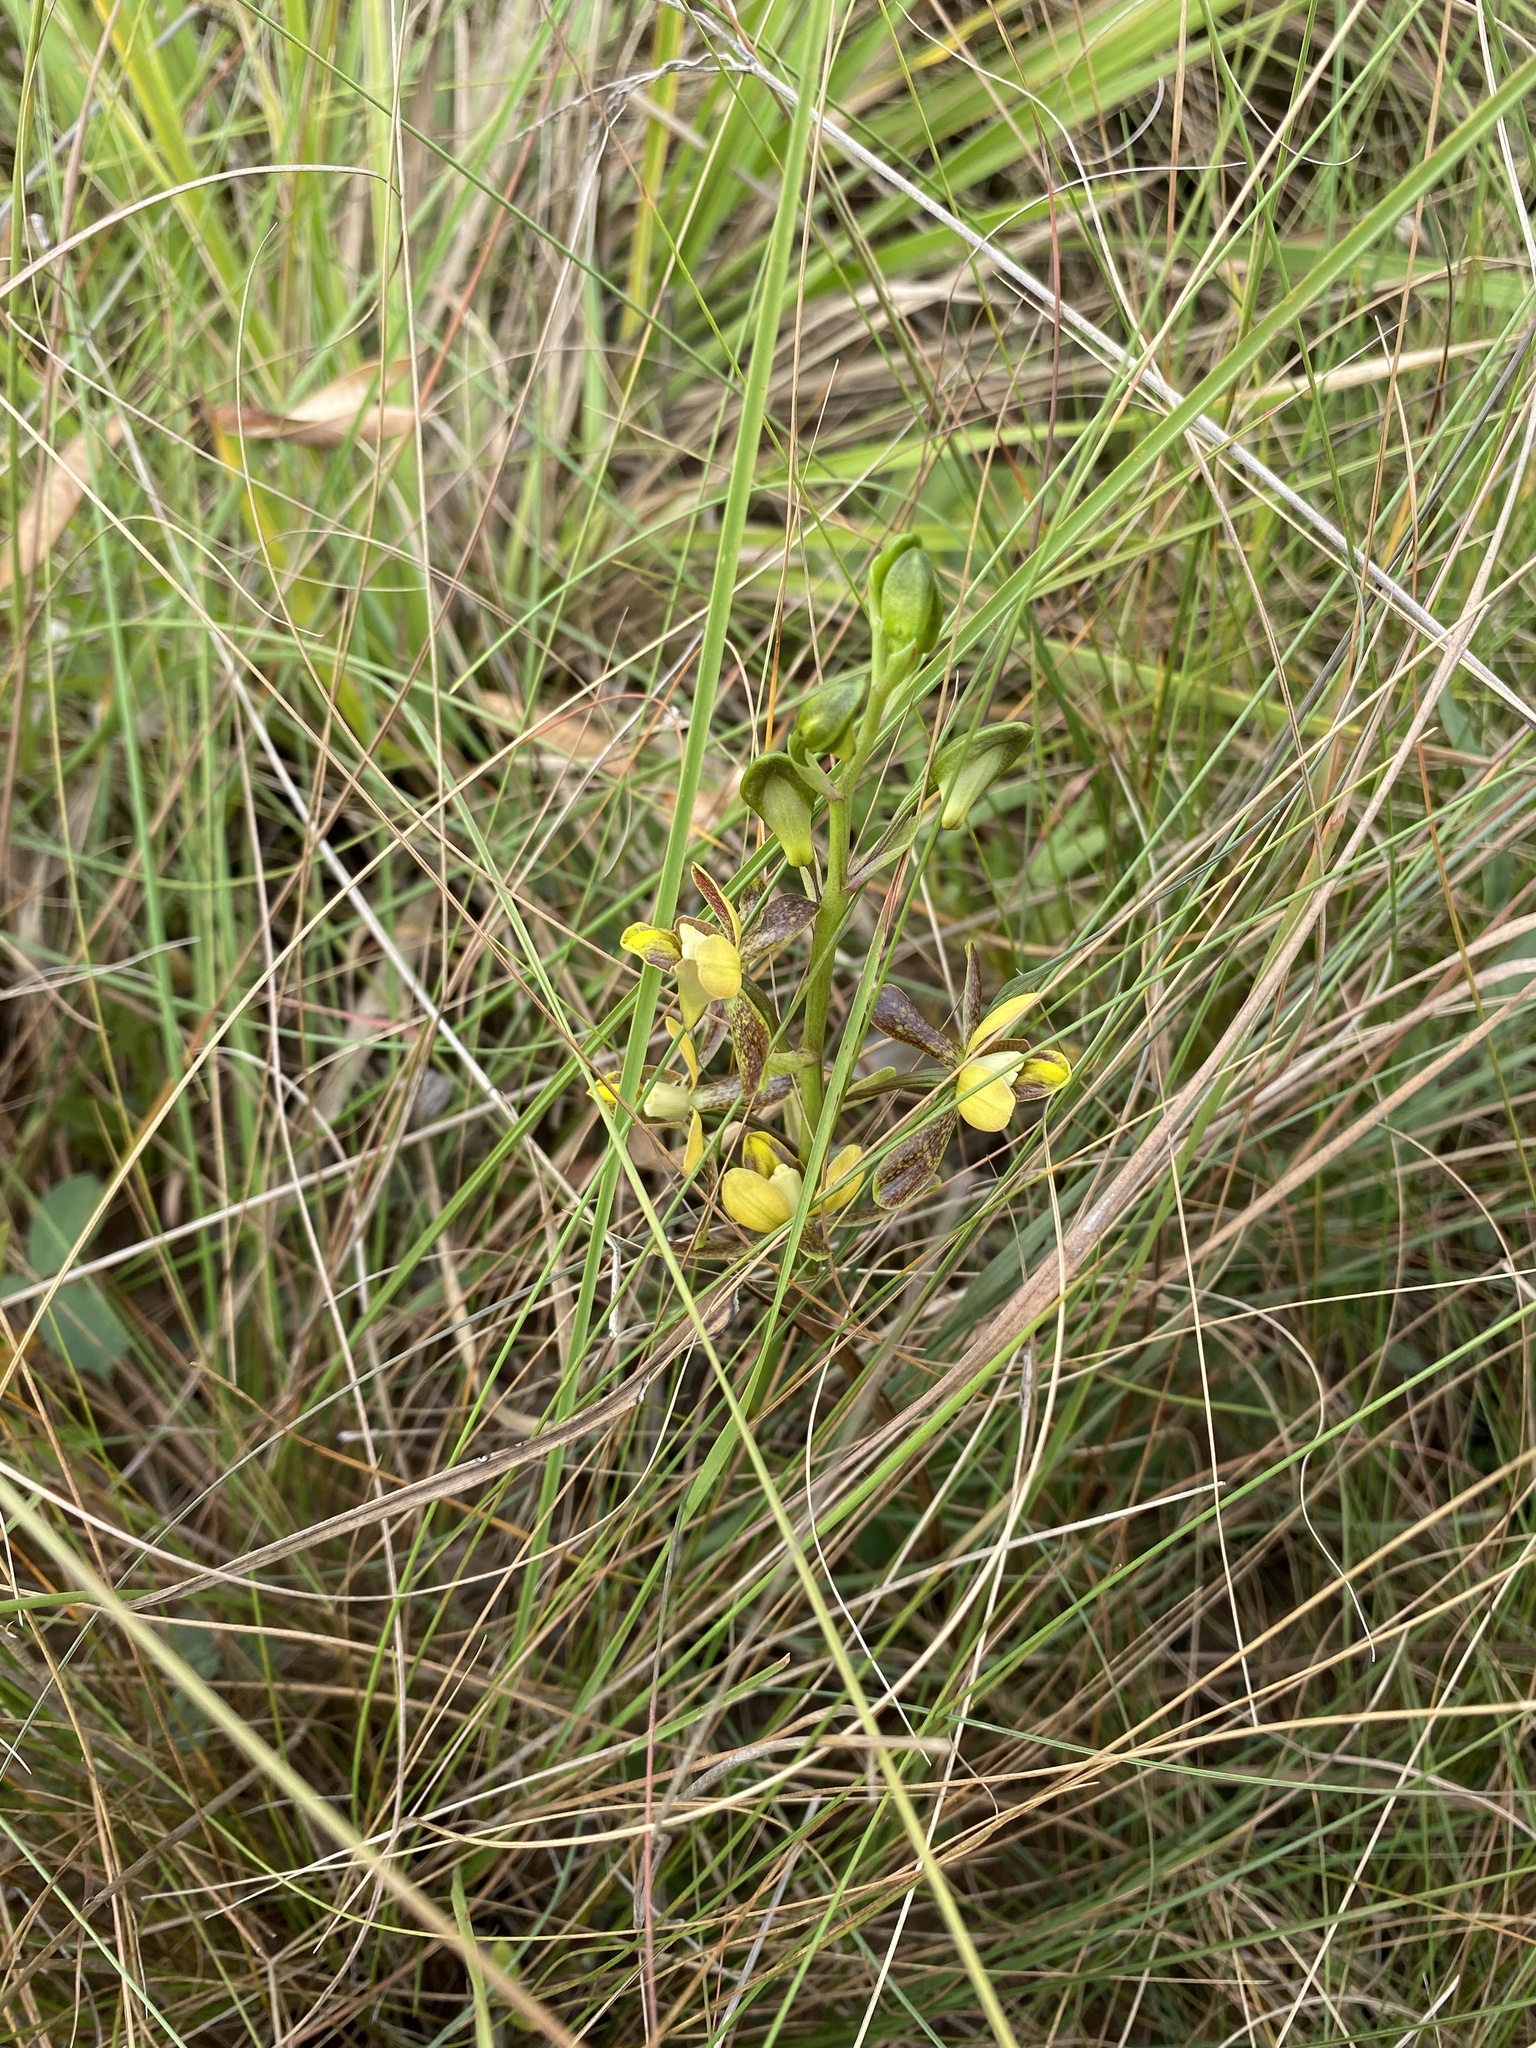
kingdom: Plantae
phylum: Tracheophyta
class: Liliopsida
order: Asparagales
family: Orchidaceae
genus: Eulophia
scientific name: Eulophia parviflora
